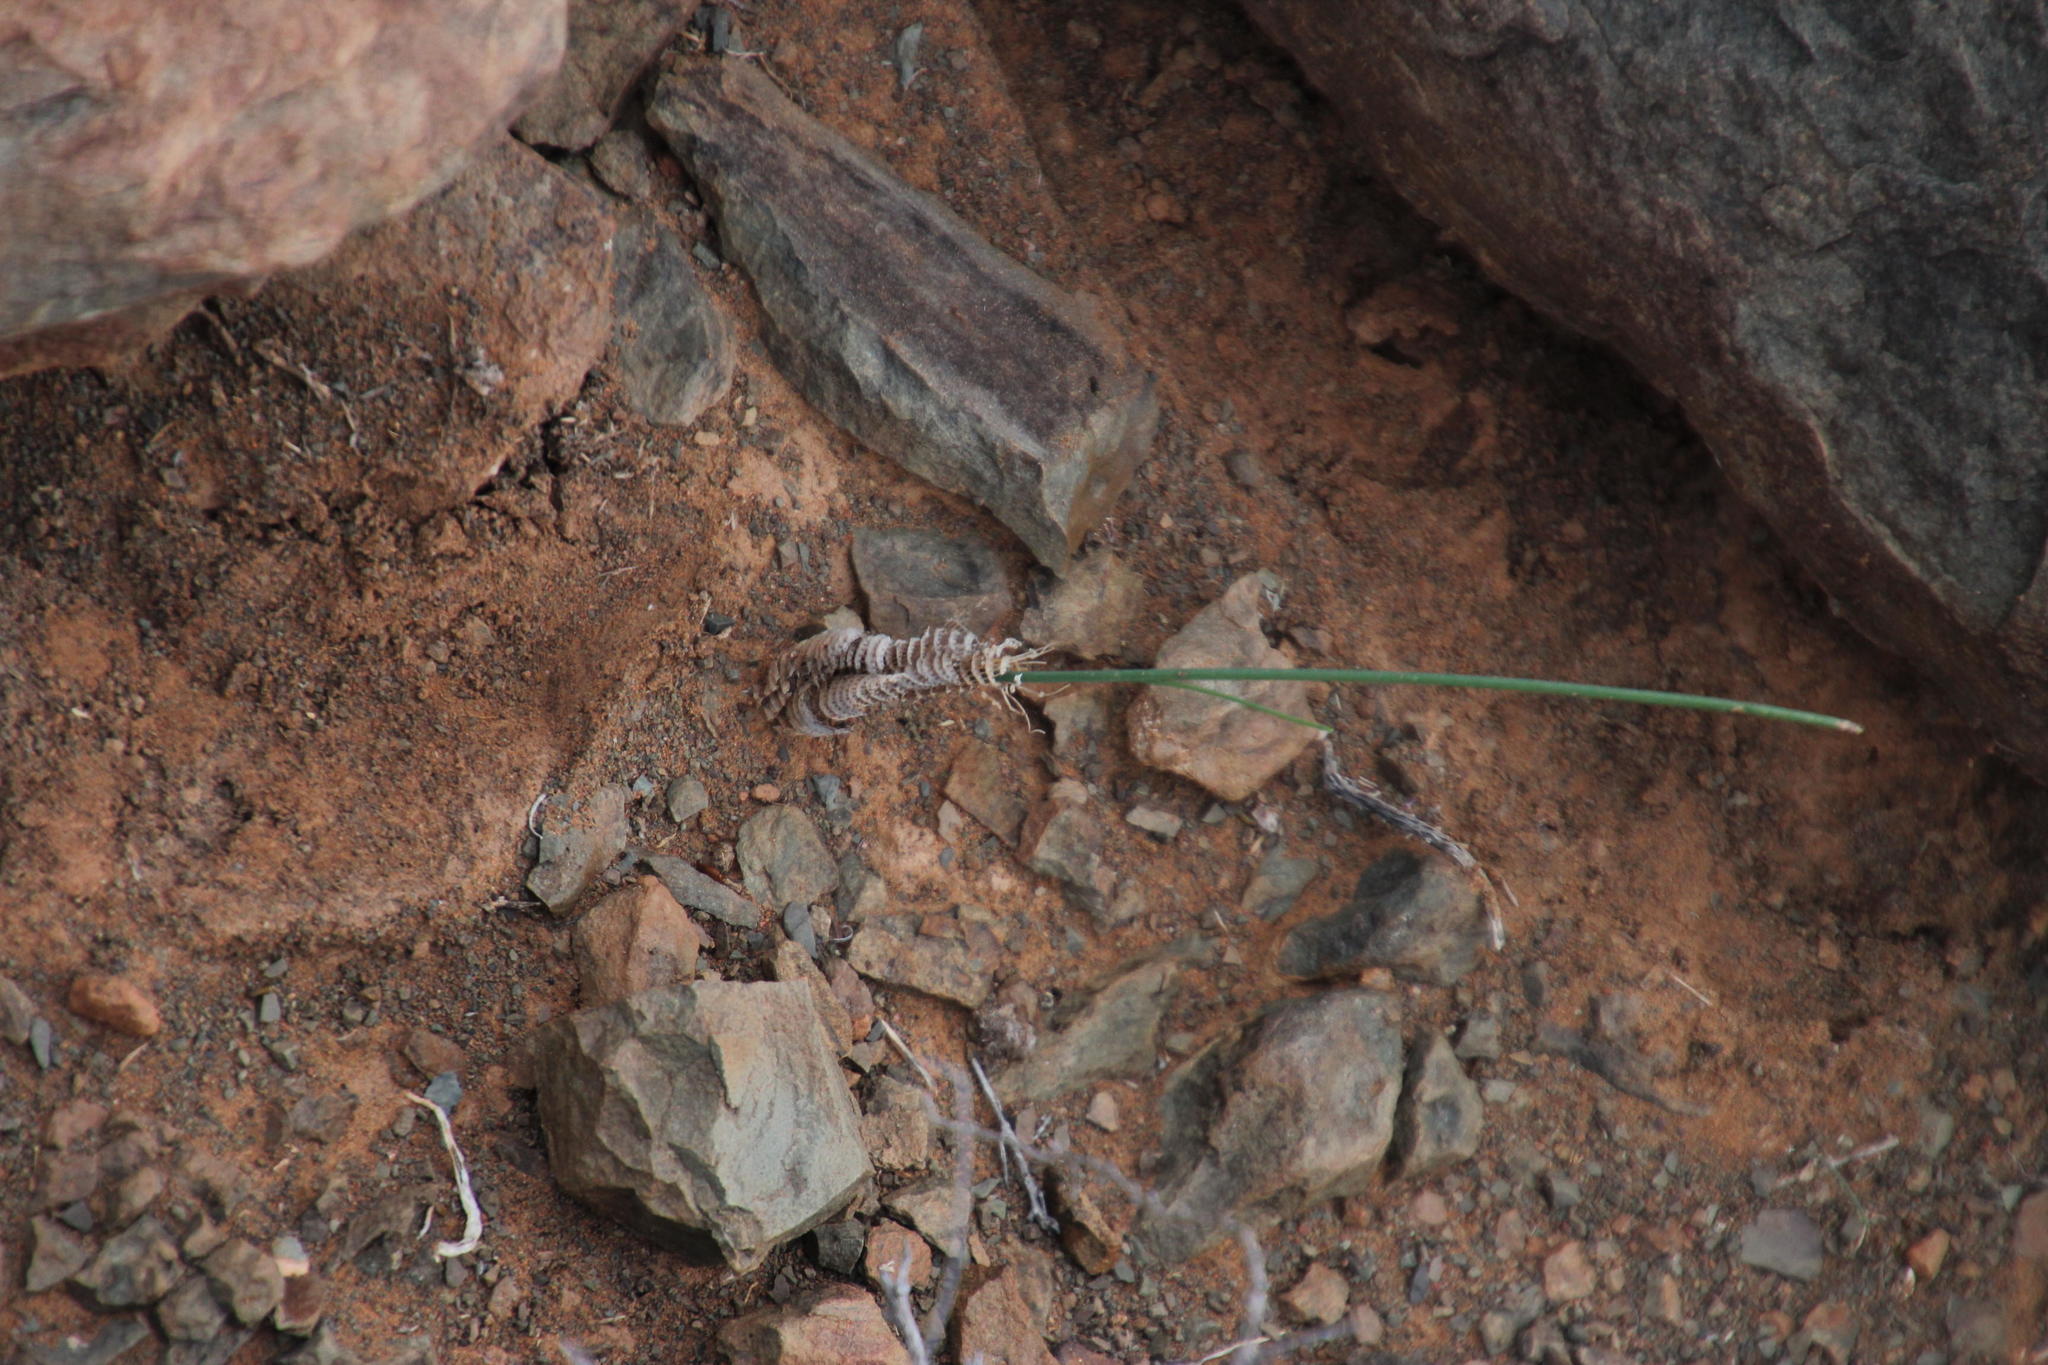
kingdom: Plantae
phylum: Tracheophyta
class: Liliopsida
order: Asparagales
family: Asparagaceae
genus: Albuca
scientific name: Albuca collina
